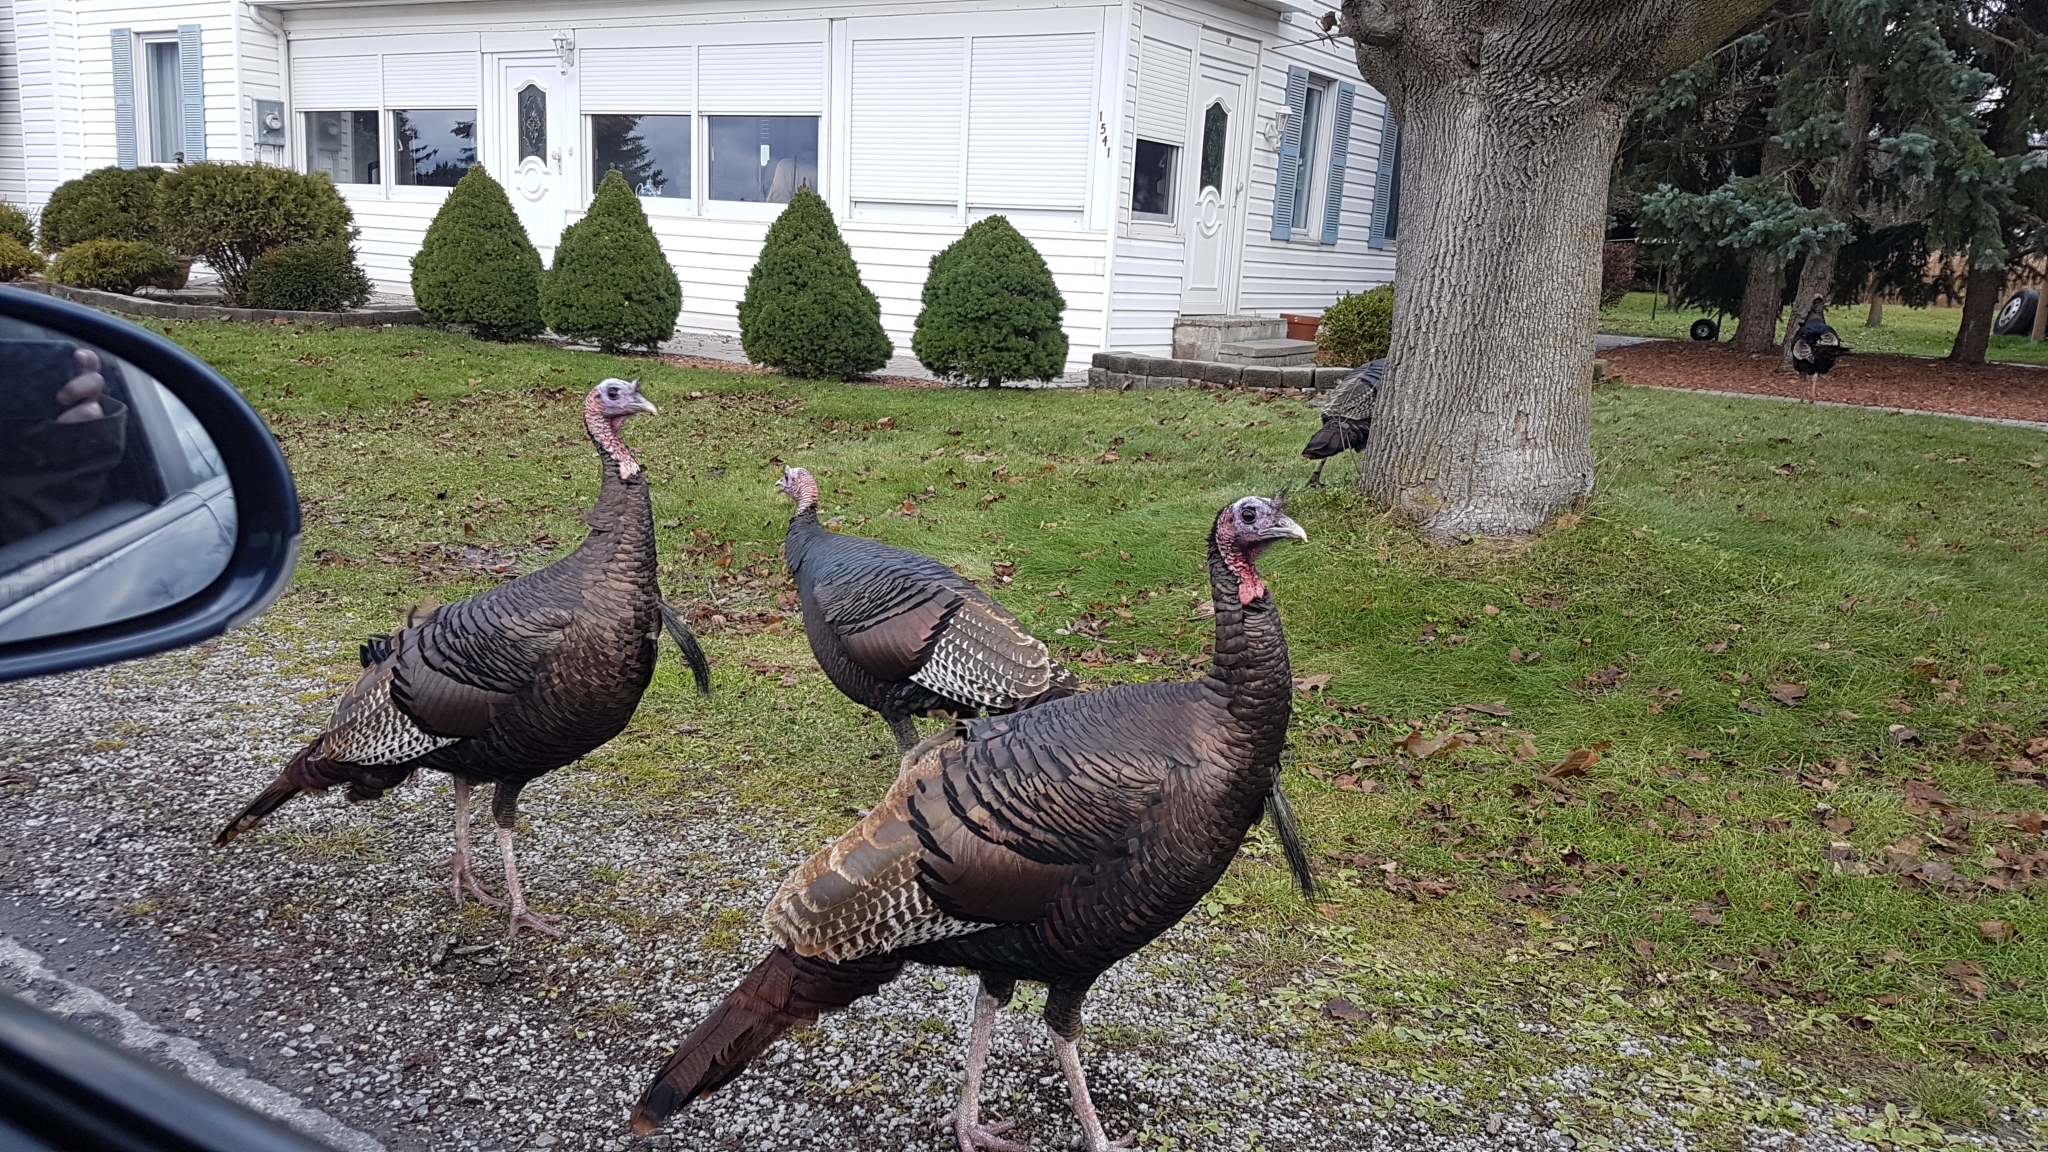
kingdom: Animalia
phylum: Chordata
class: Aves
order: Galliformes
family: Phasianidae
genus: Meleagris
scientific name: Meleagris gallopavo
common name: Wild turkey
